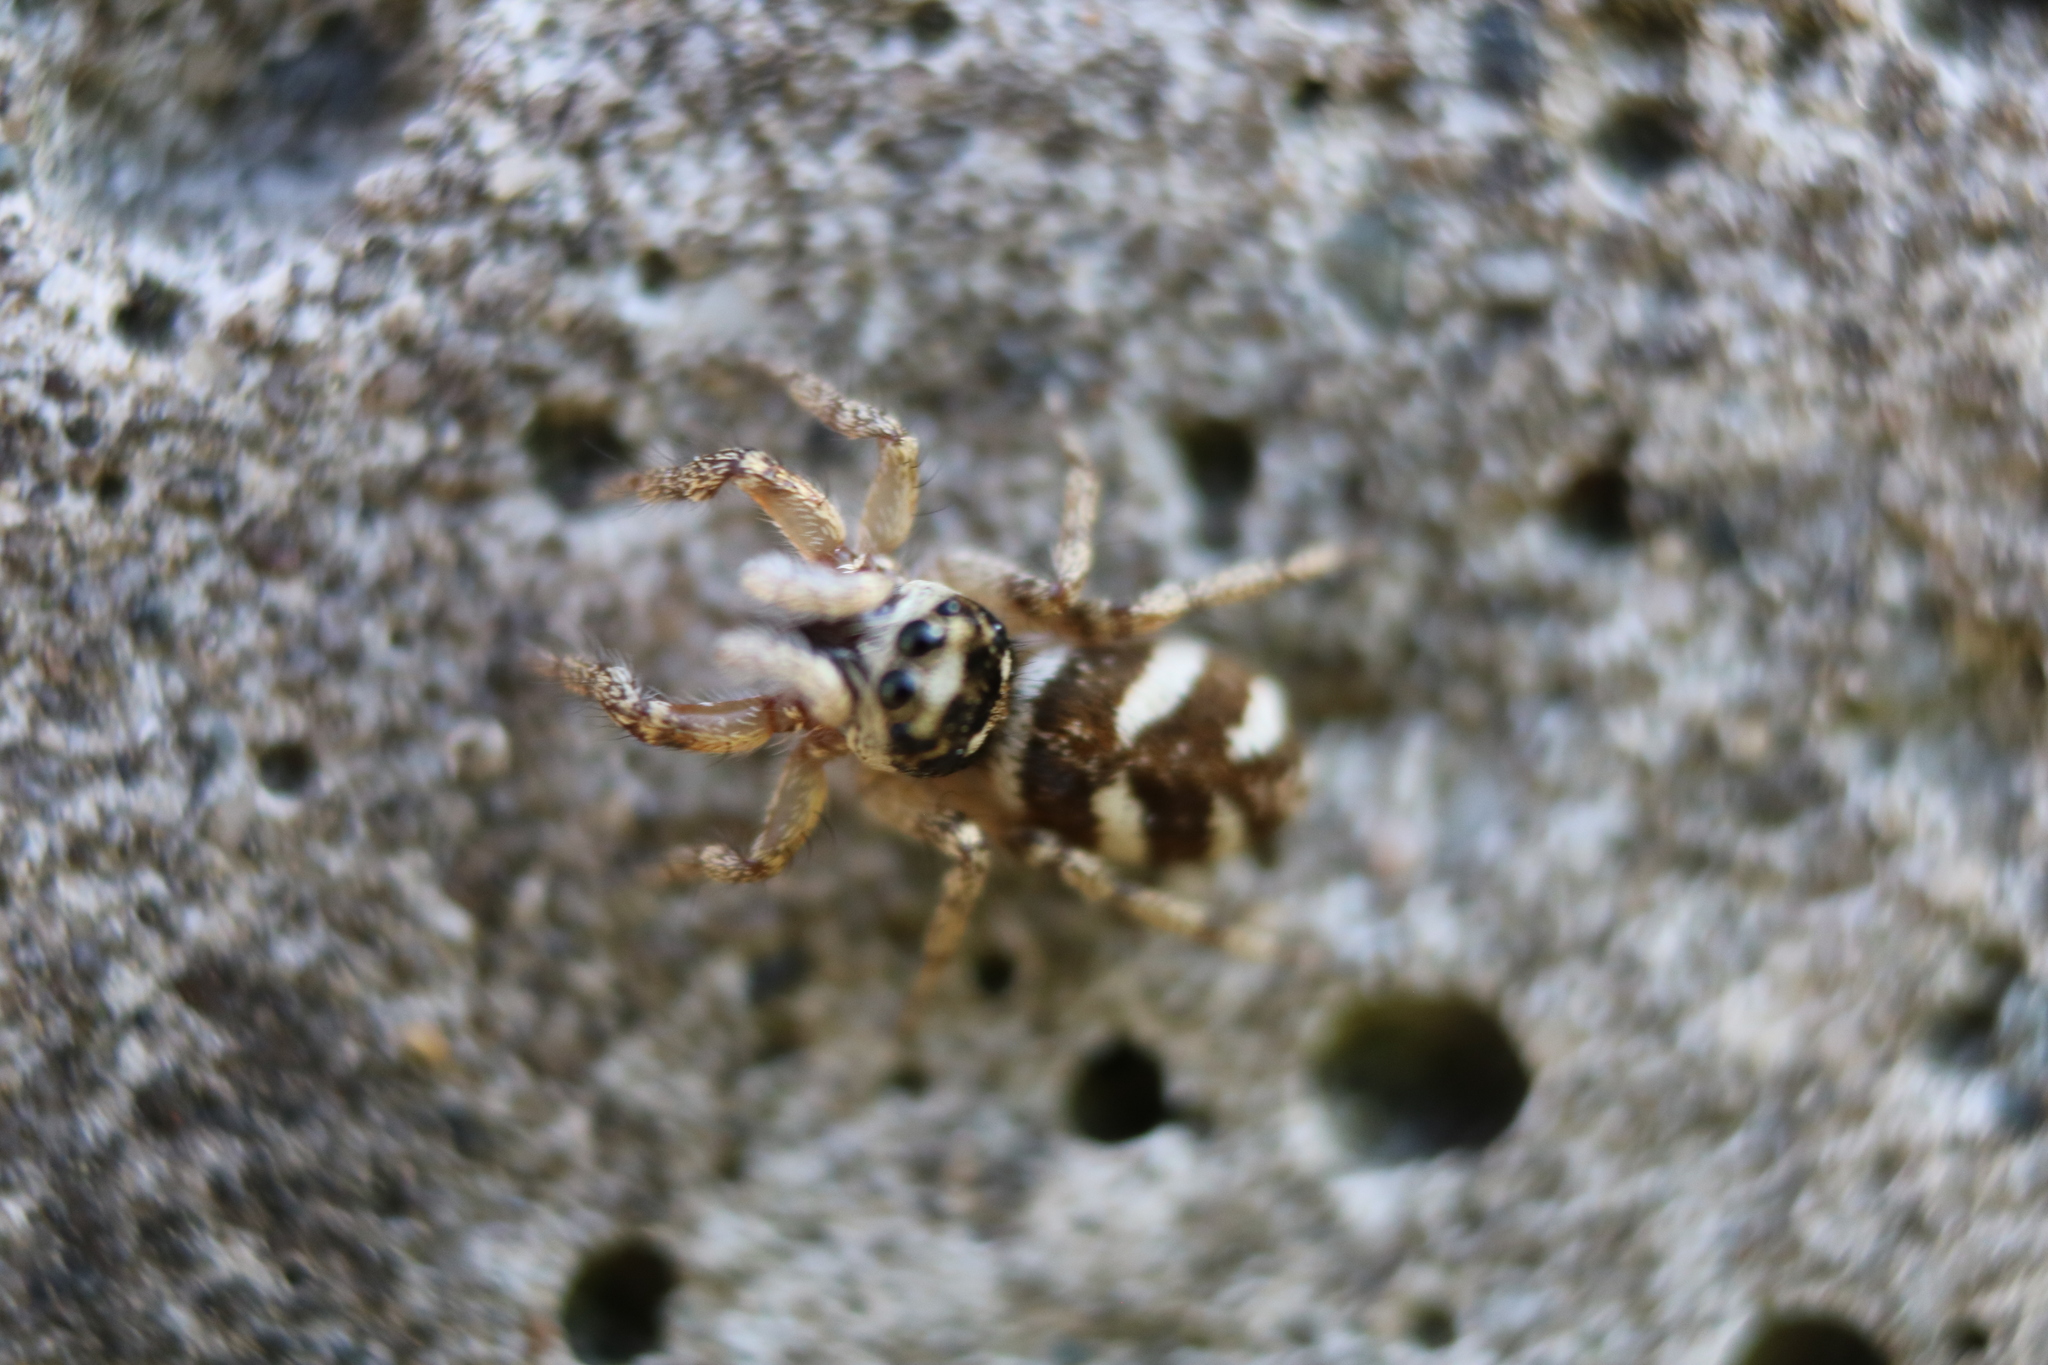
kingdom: Animalia
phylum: Arthropoda
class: Arachnida
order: Araneae
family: Salticidae
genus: Salticus
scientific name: Salticus scenicus
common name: Zebra jumper
